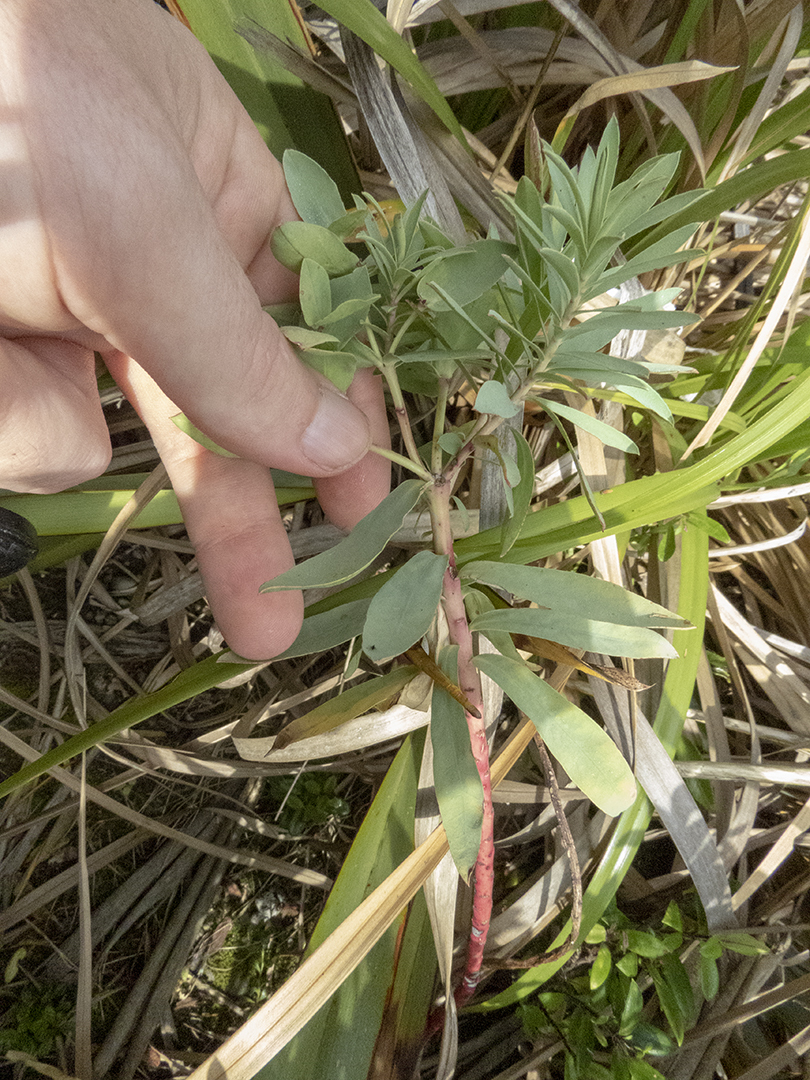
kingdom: Plantae
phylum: Tracheophyta
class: Magnoliopsida
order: Malpighiales
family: Euphorbiaceae
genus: Euphorbia
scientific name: Euphorbia glauca
